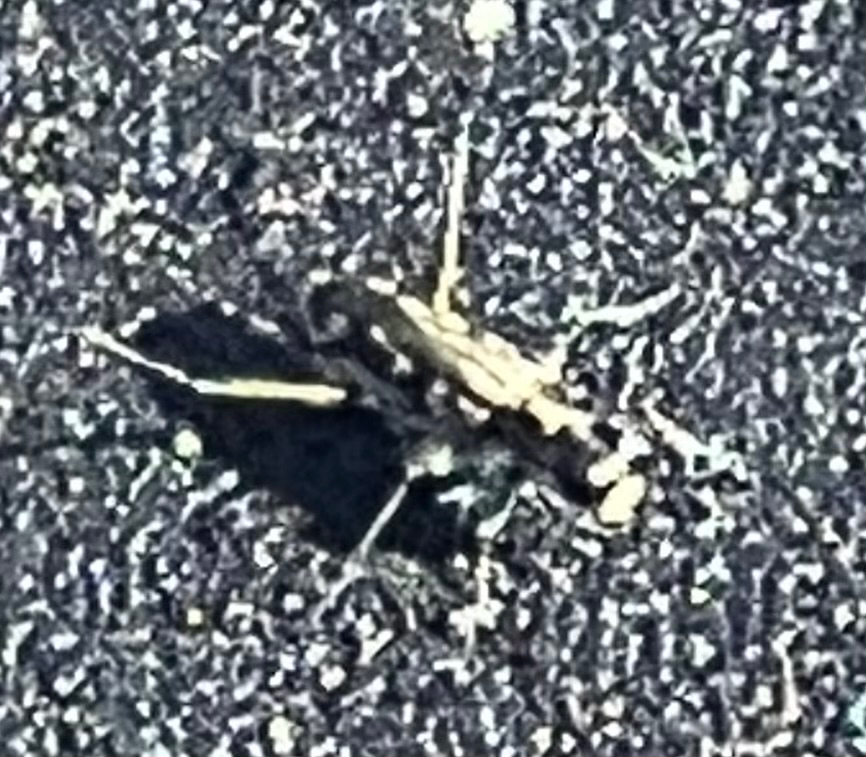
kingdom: Animalia
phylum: Arthropoda
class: Insecta
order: Coleoptera
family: Carabidae
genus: Opilidia
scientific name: Opilidia macrocnema
